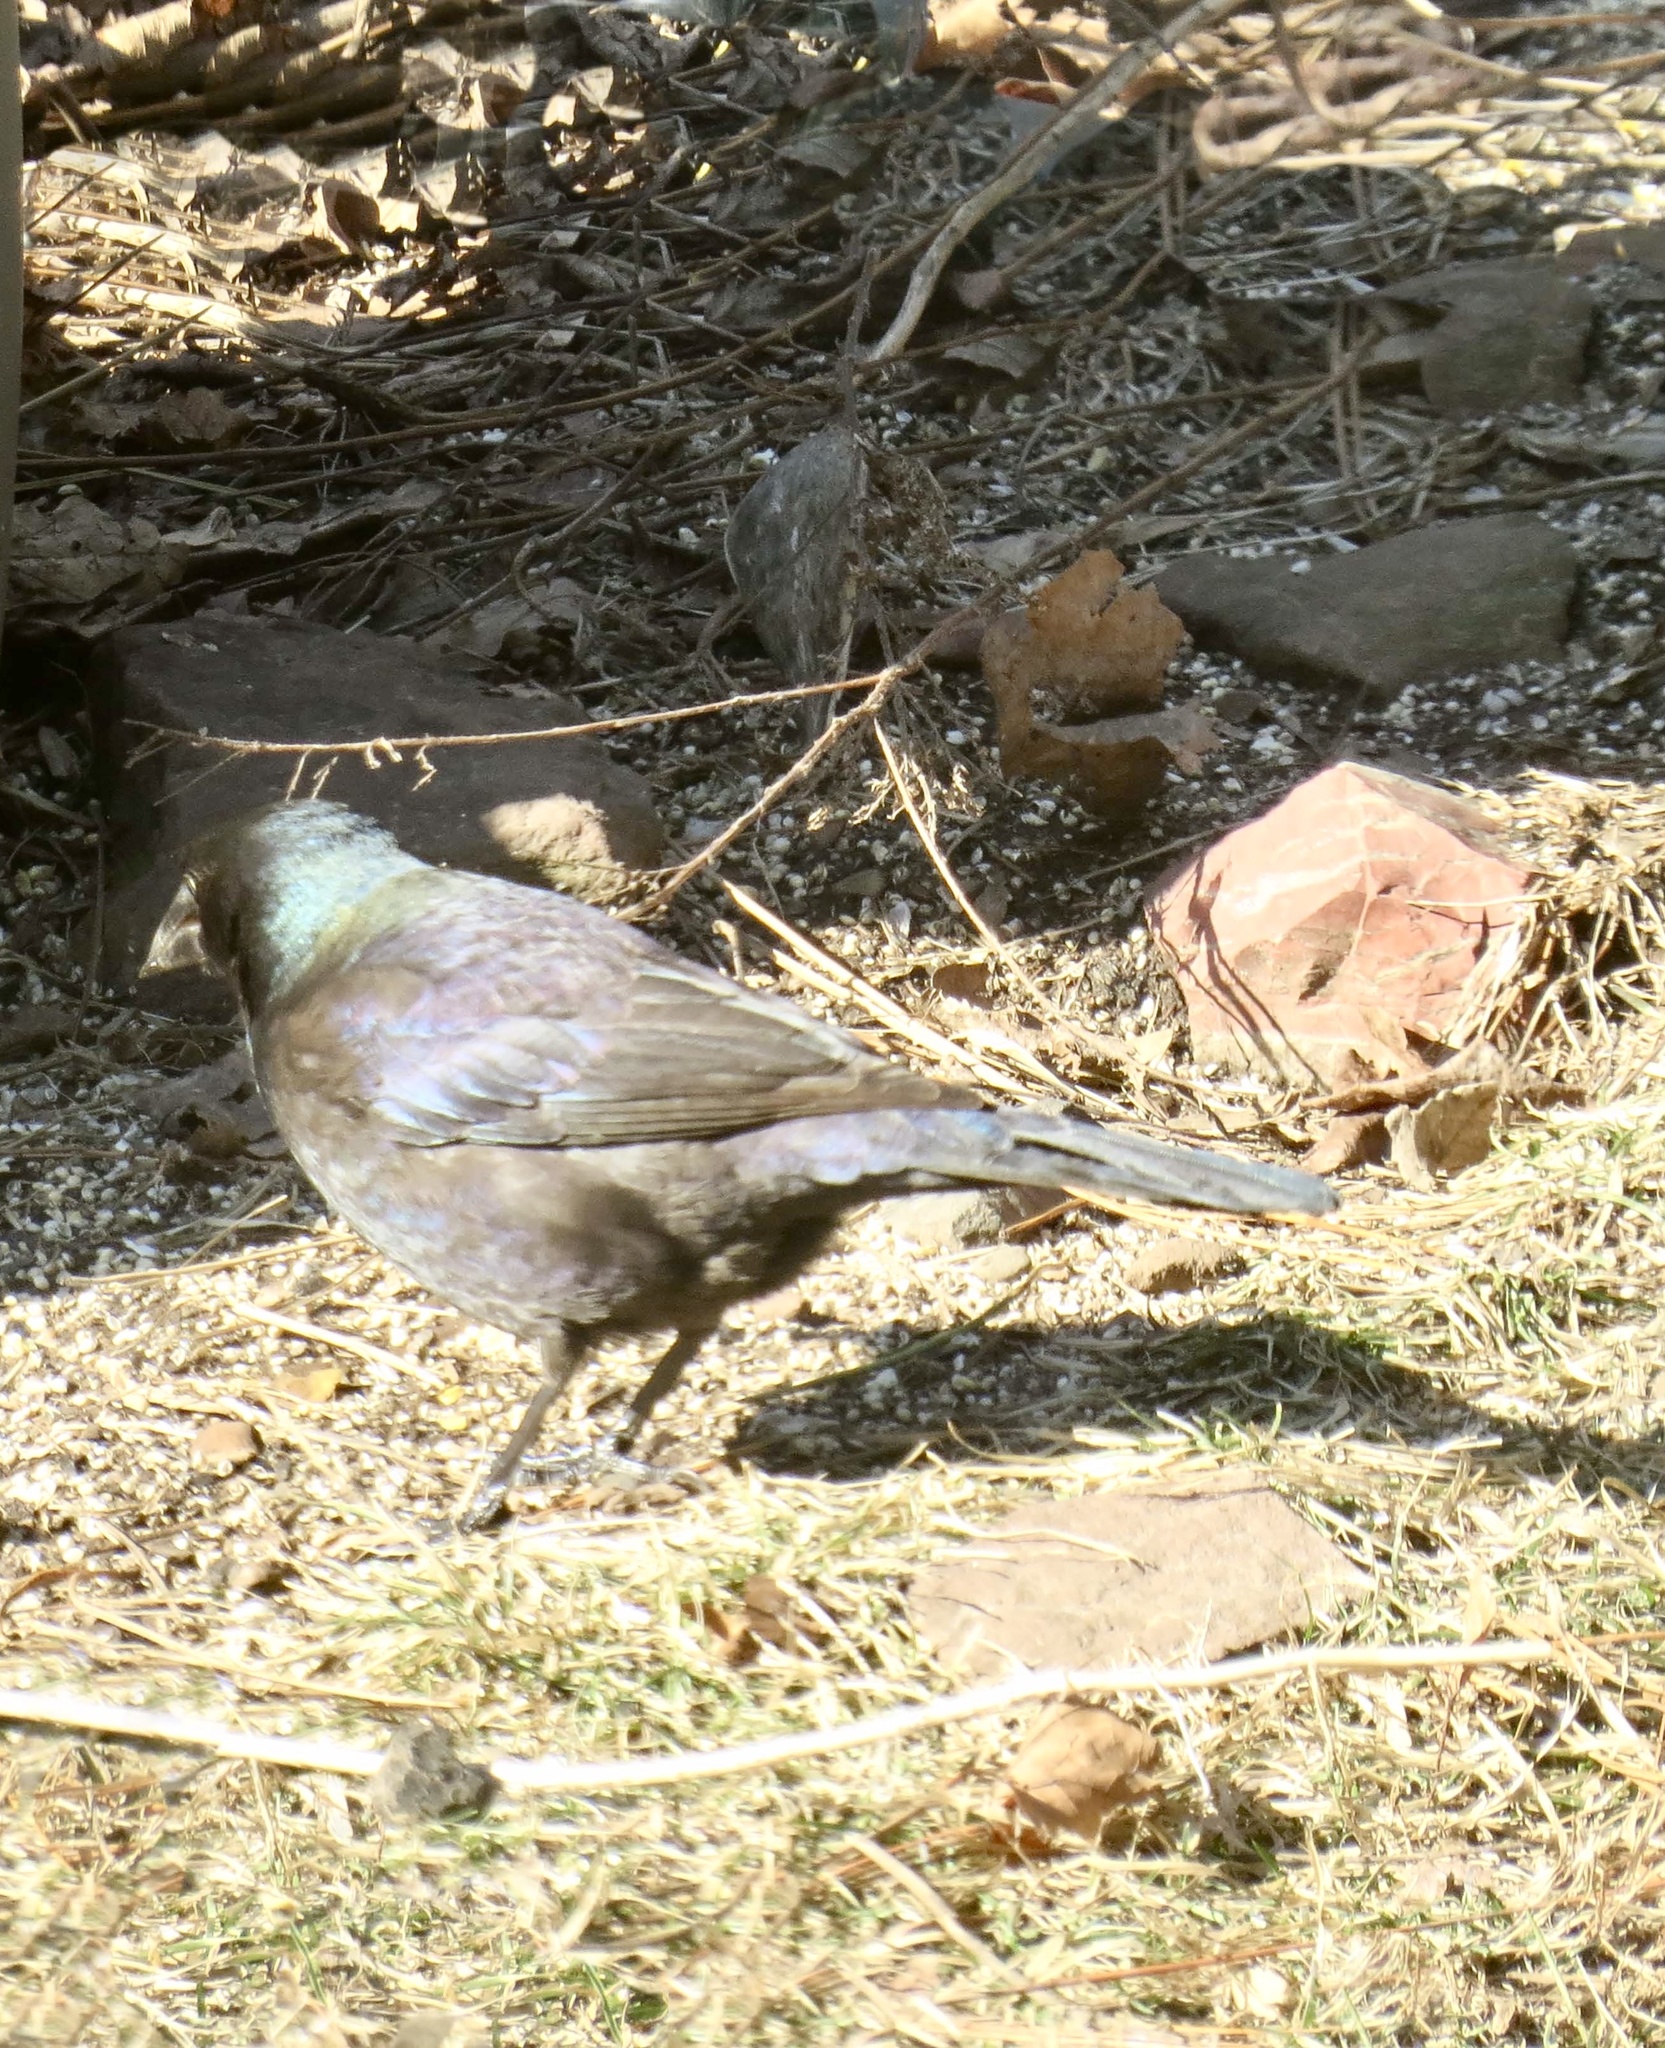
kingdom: Animalia
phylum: Chordata
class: Aves
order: Passeriformes
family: Icteridae
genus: Quiscalus
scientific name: Quiscalus quiscula
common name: Common grackle
